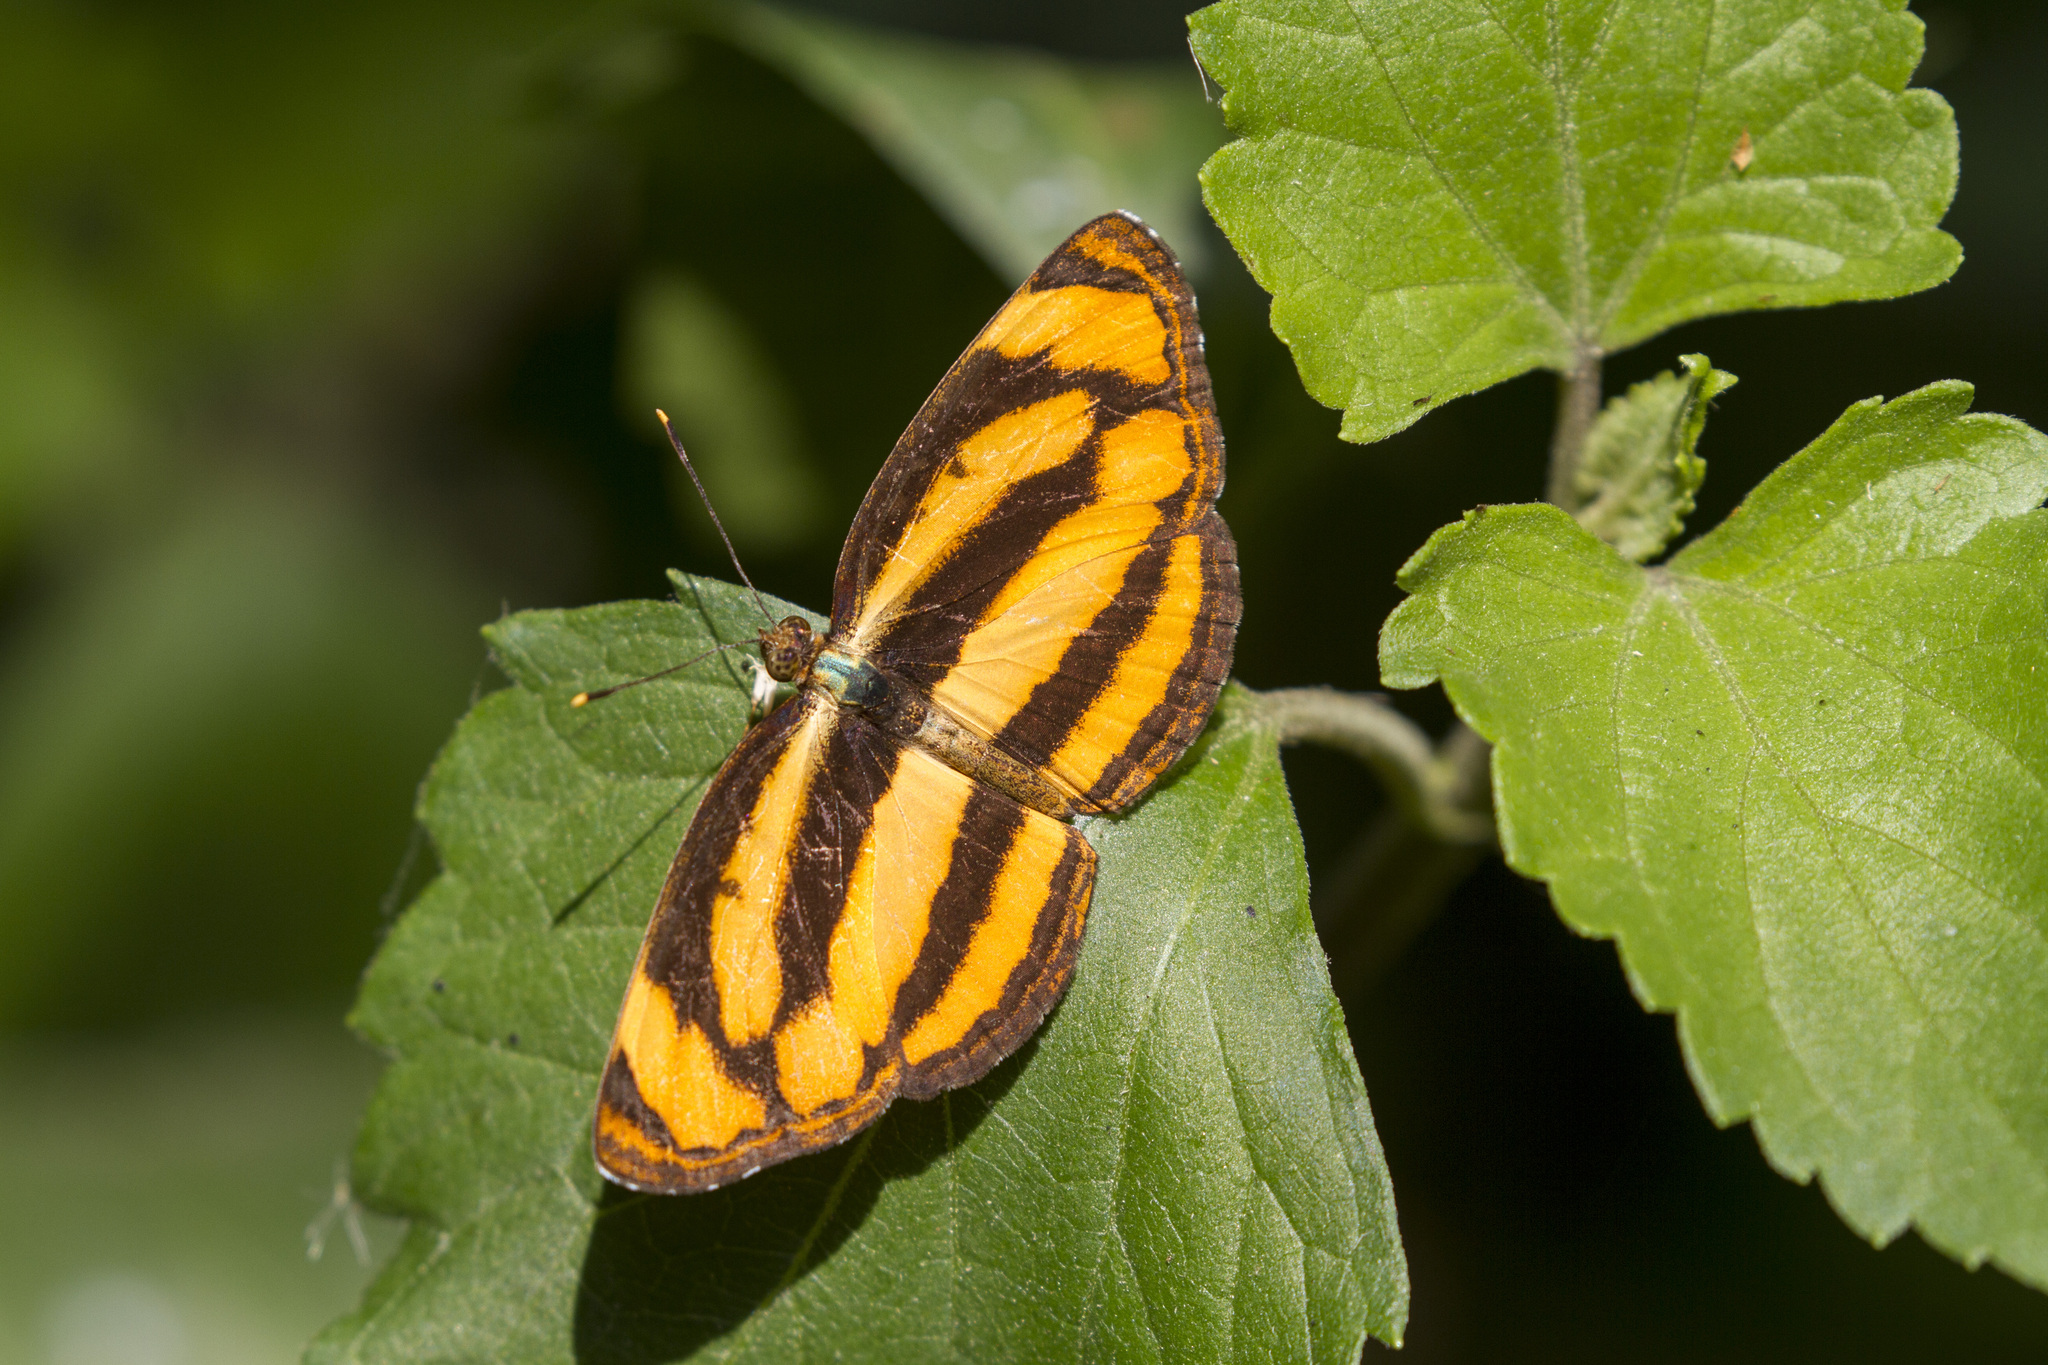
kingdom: Animalia
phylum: Arthropoda
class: Insecta
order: Lepidoptera
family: Nymphalidae
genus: Pantoporia
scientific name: Pantoporia hordonia
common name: Common lascar
